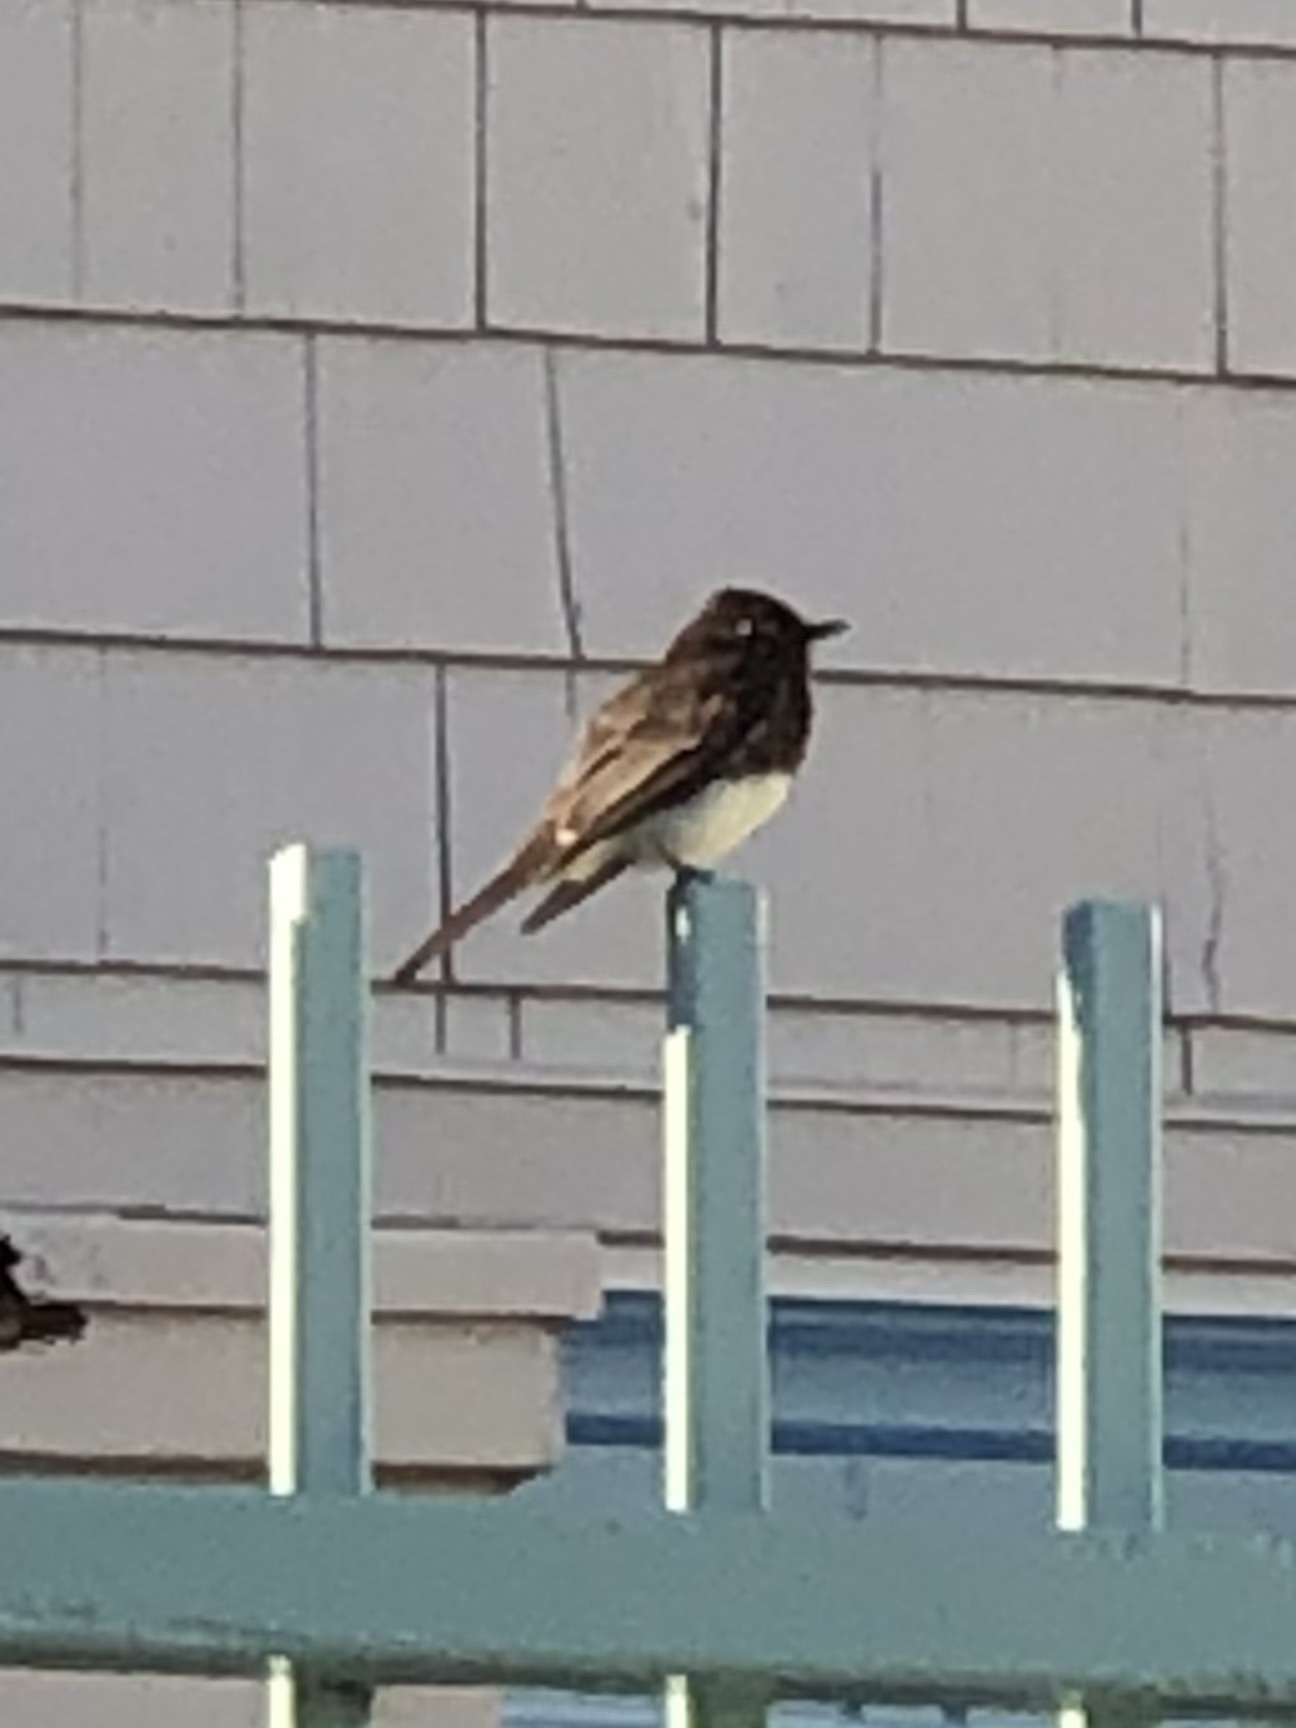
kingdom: Animalia
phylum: Chordata
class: Aves
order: Passeriformes
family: Tyrannidae
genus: Sayornis
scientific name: Sayornis nigricans
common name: Black phoebe
